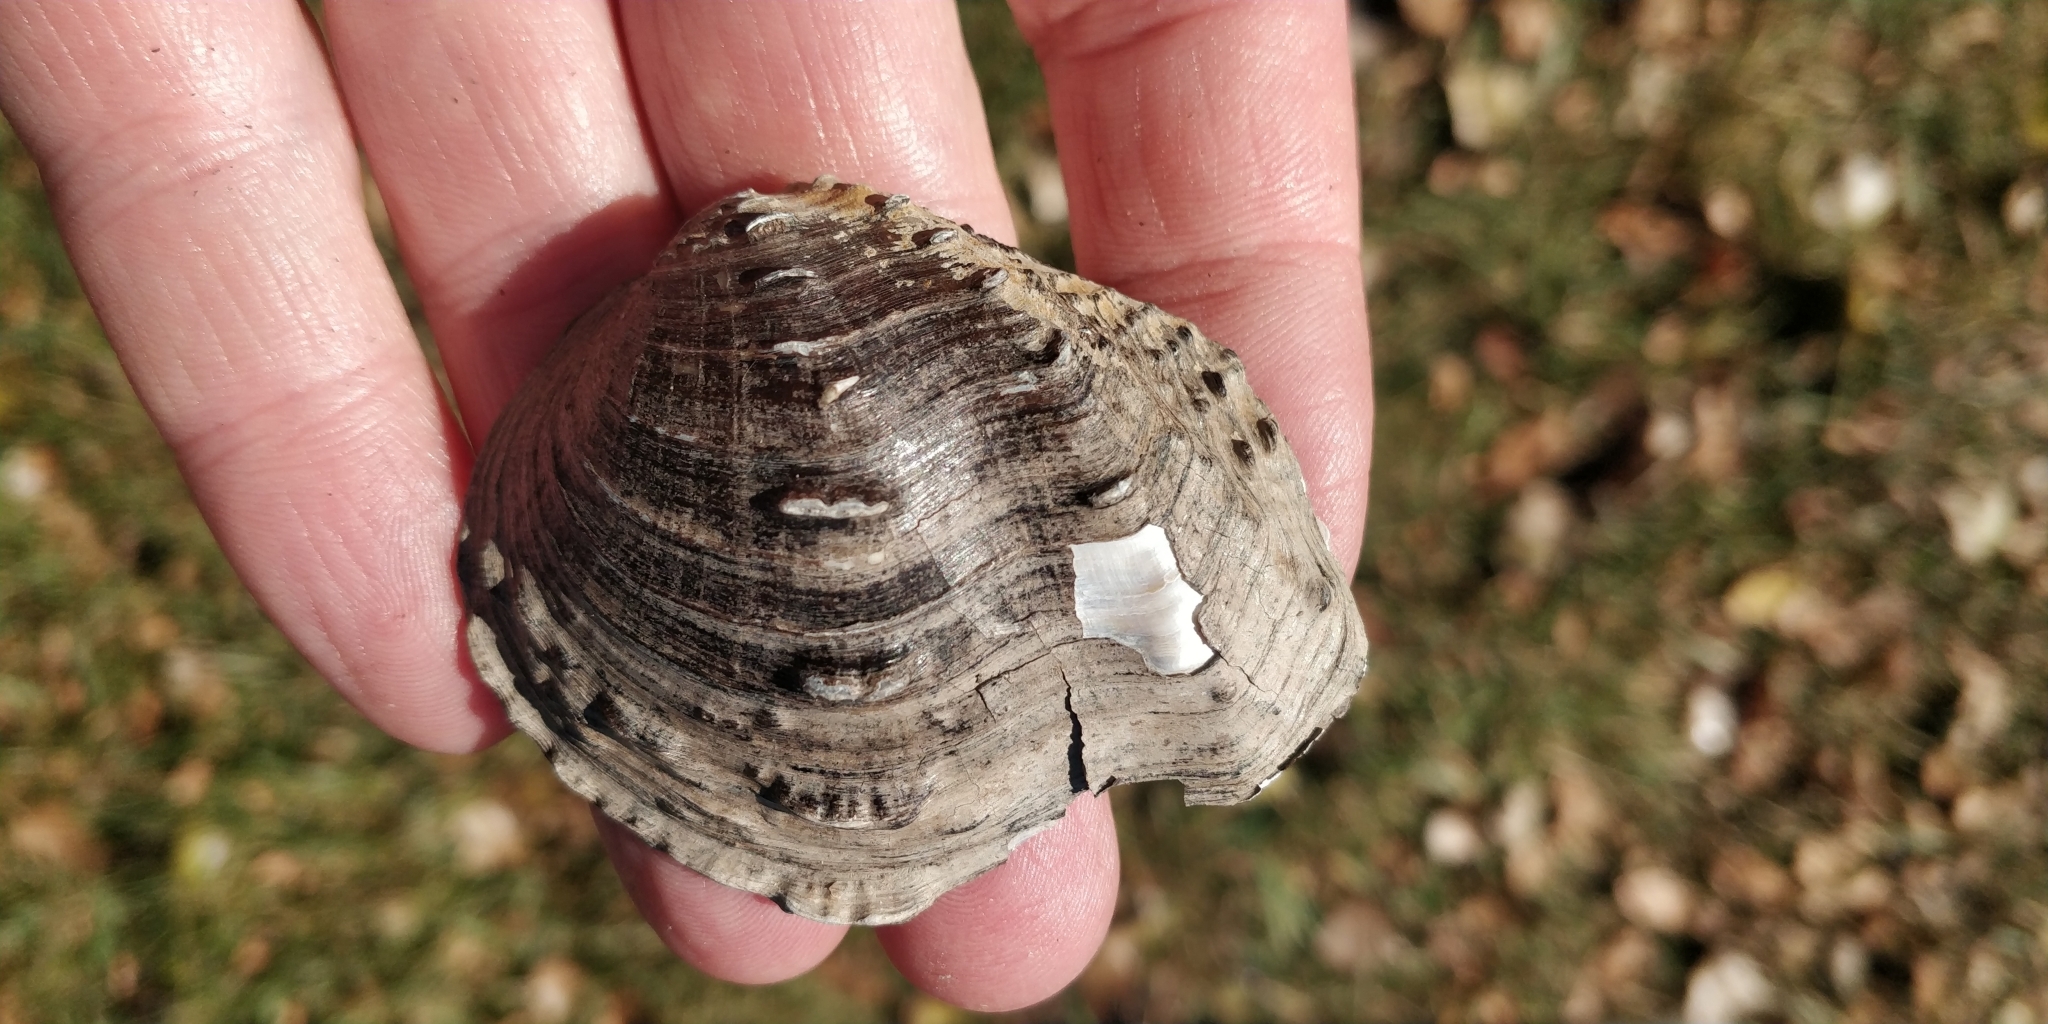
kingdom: Animalia
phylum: Mollusca
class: Bivalvia
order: Unionida
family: Unionidae
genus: Tritogonia
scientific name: Tritogonia nobilis
